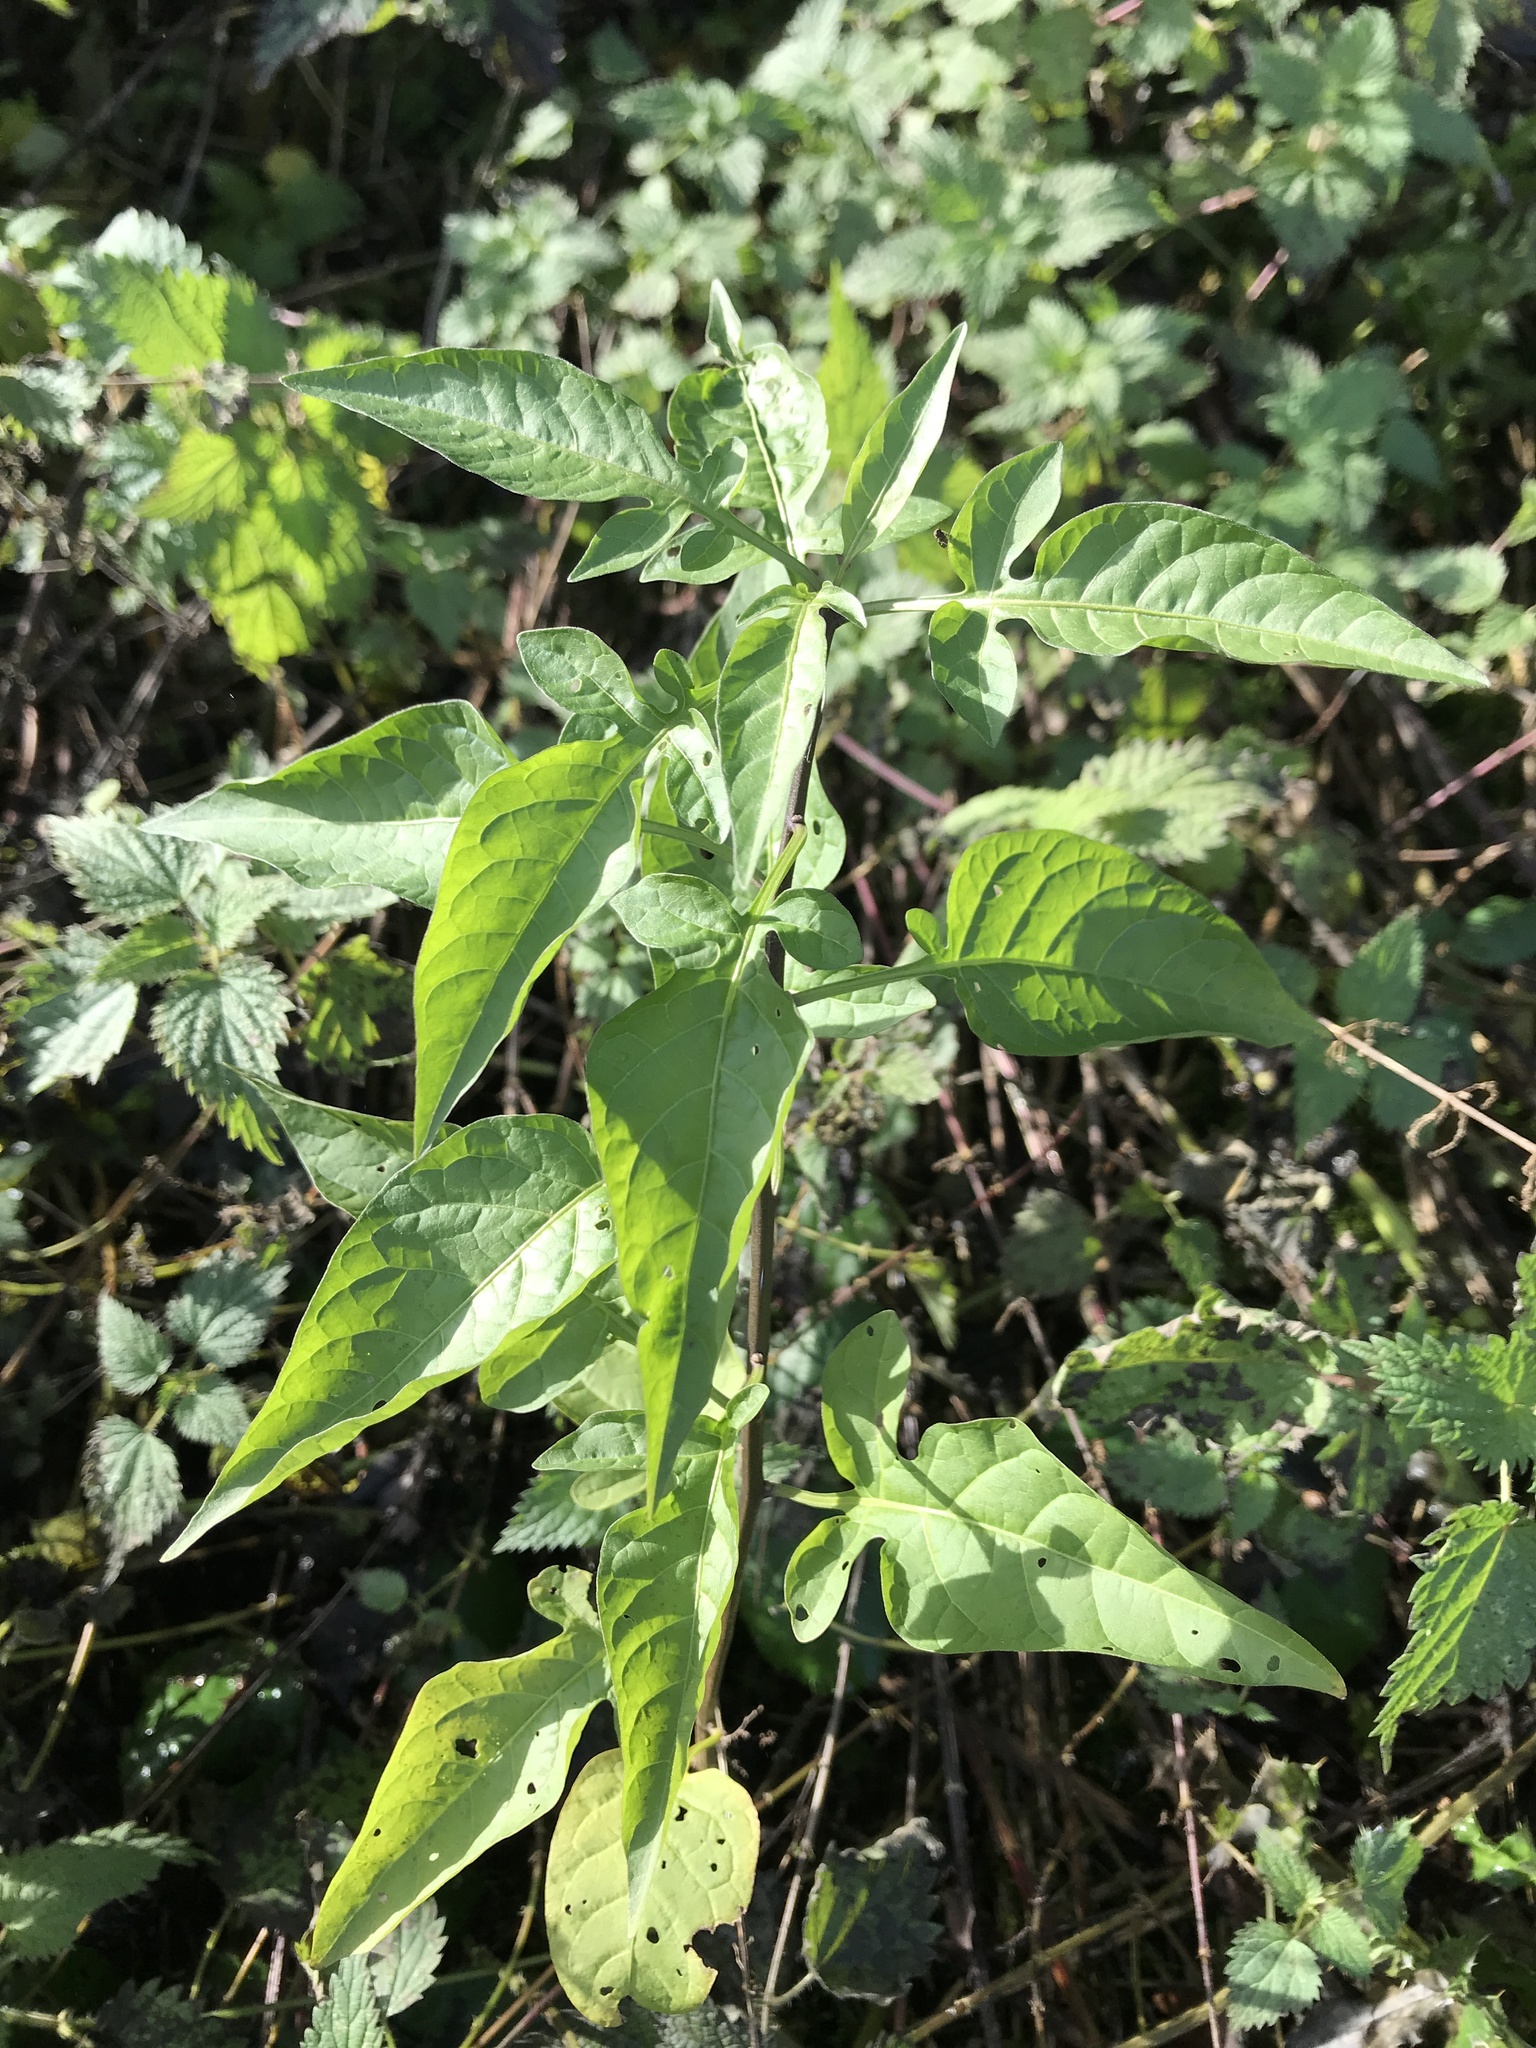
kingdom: Plantae
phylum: Tracheophyta
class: Magnoliopsida
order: Solanales
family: Solanaceae
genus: Solanum
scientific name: Solanum dulcamara
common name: Climbing nightshade
